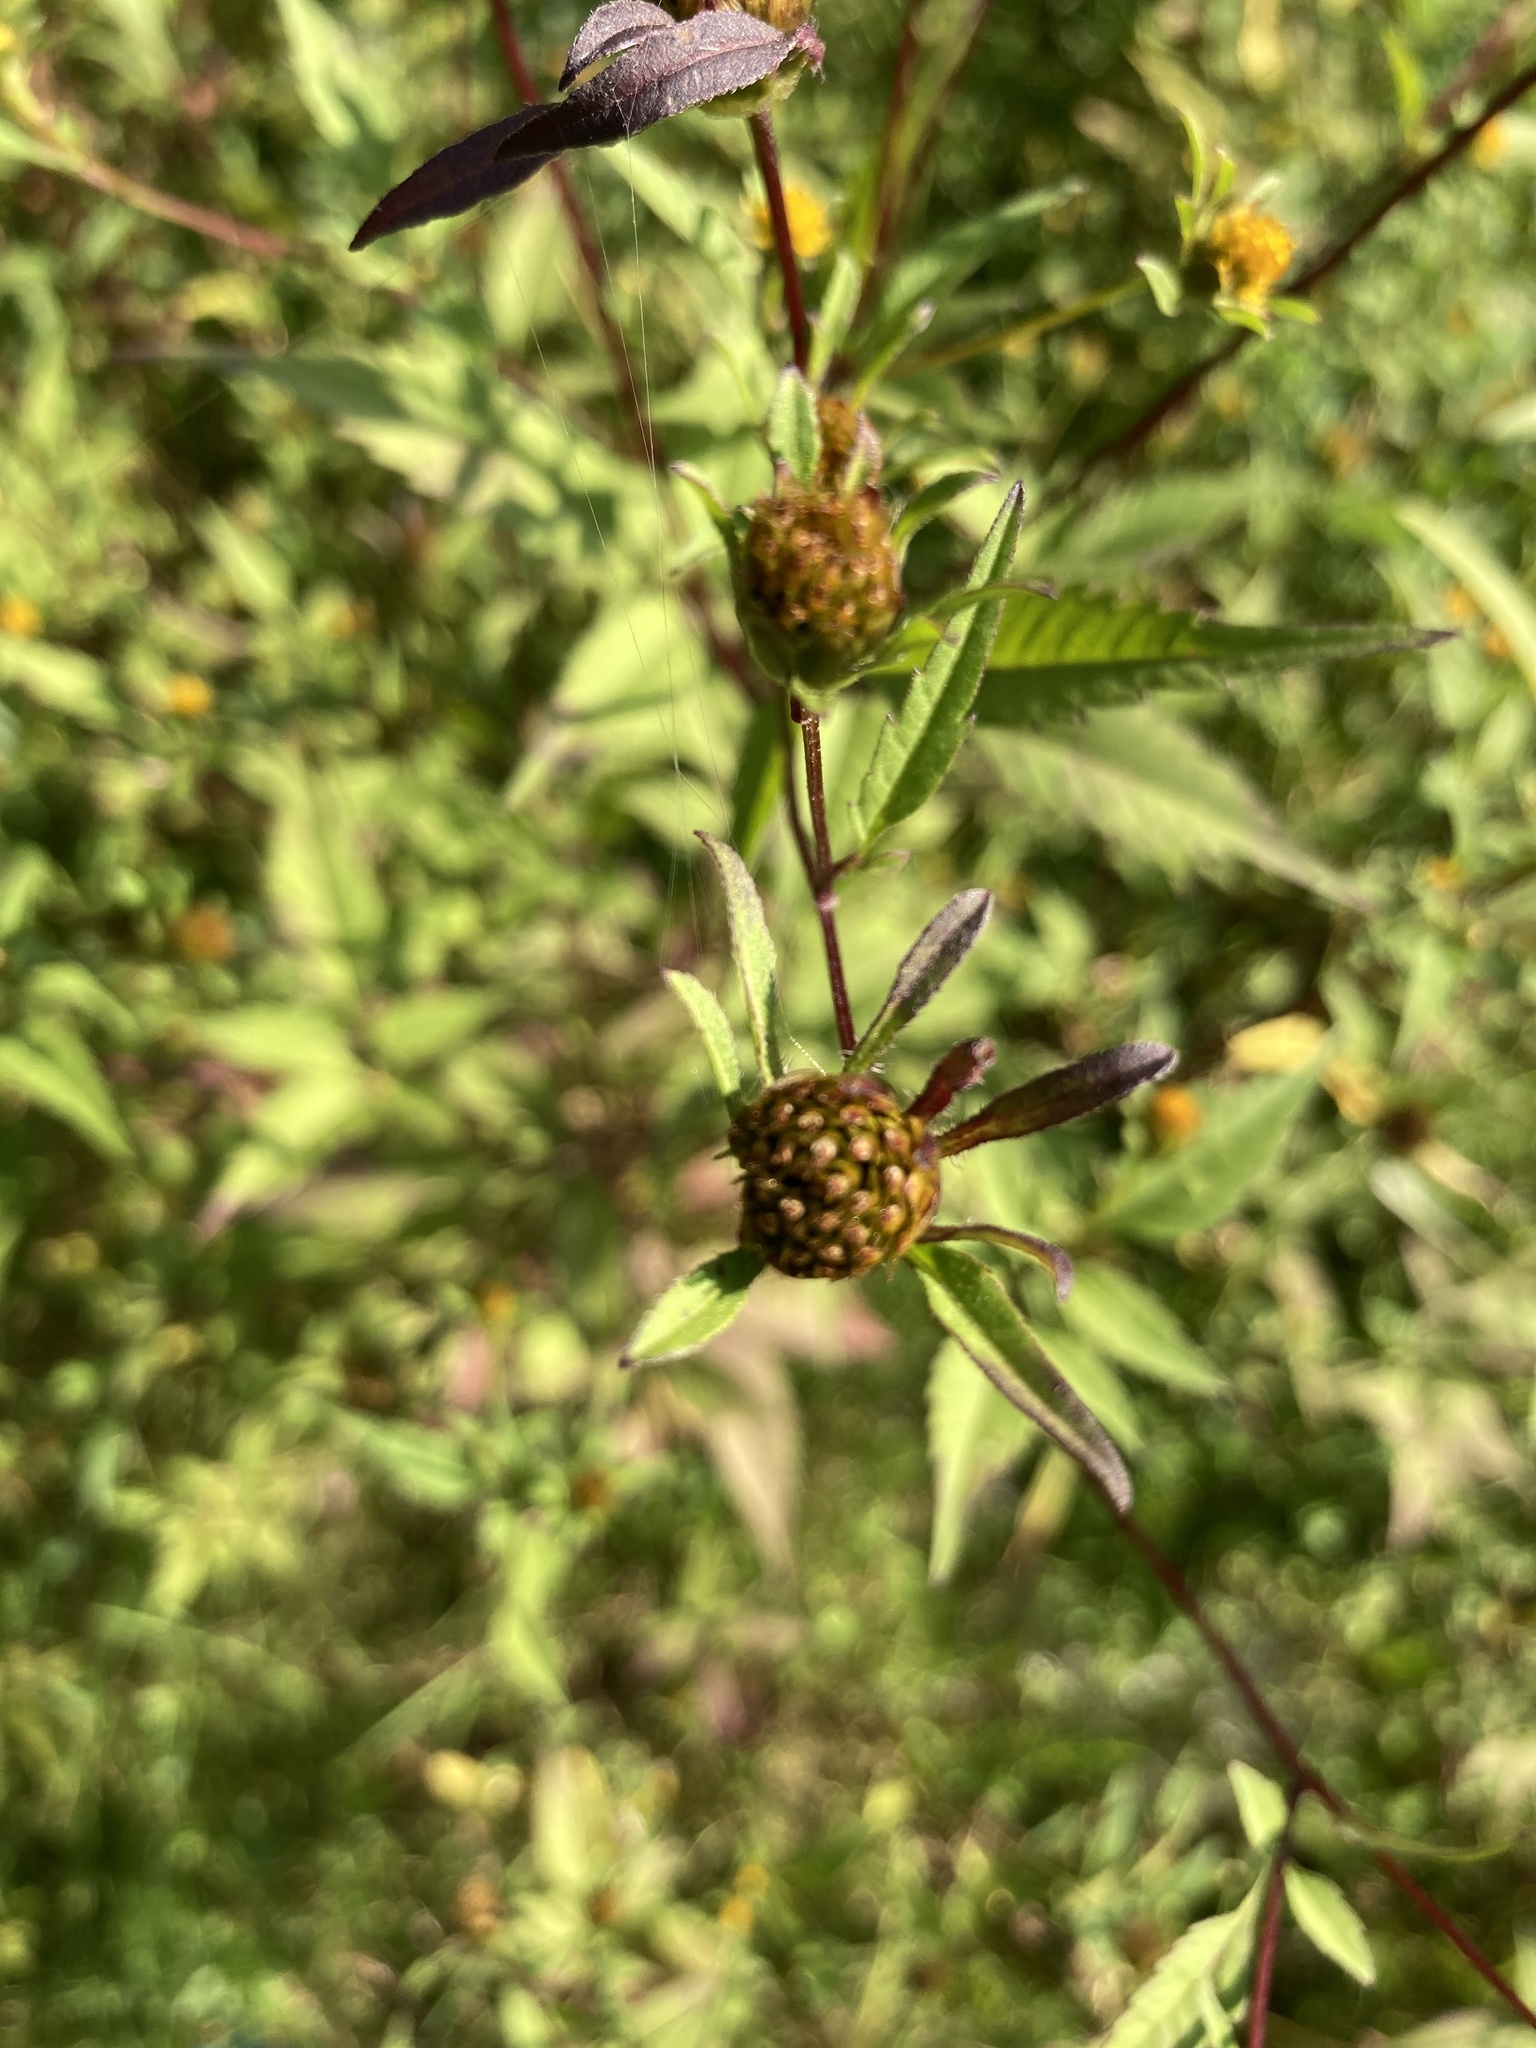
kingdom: Plantae
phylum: Tracheophyta
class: Magnoliopsida
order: Asterales
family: Asteraceae
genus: Bidens
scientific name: Bidens frondosa
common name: Beggarticks
